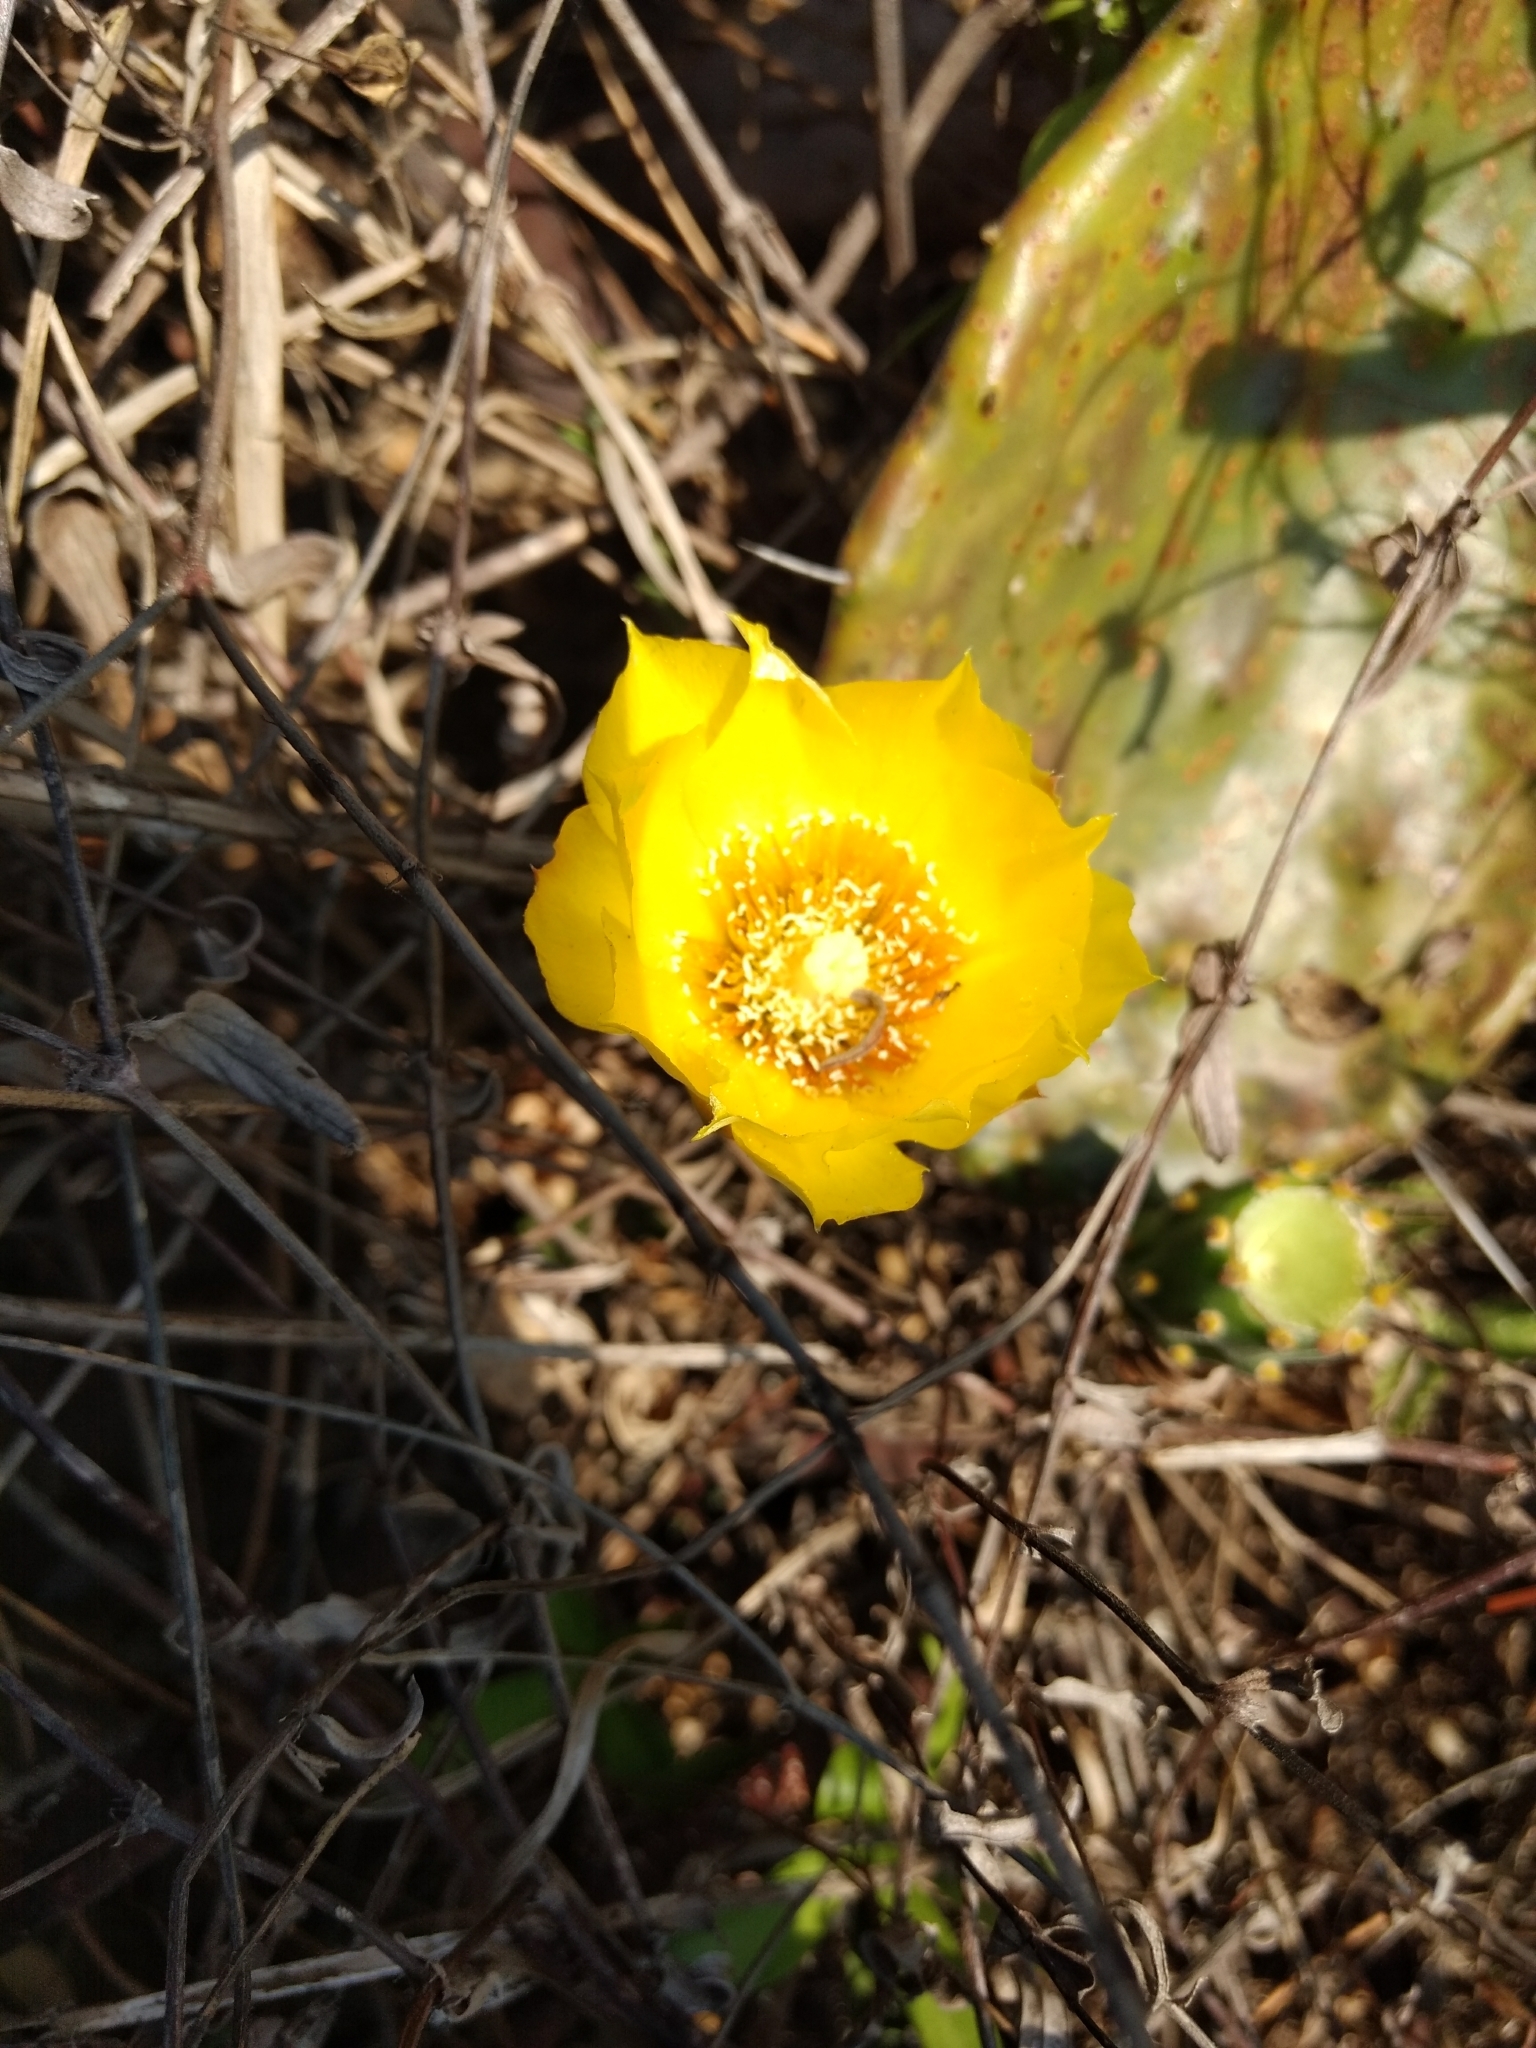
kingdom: Plantae
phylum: Tracheophyta
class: Magnoliopsida
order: Caryophyllales
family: Cactaceae
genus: Opuntia
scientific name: Opuntia decumbens
